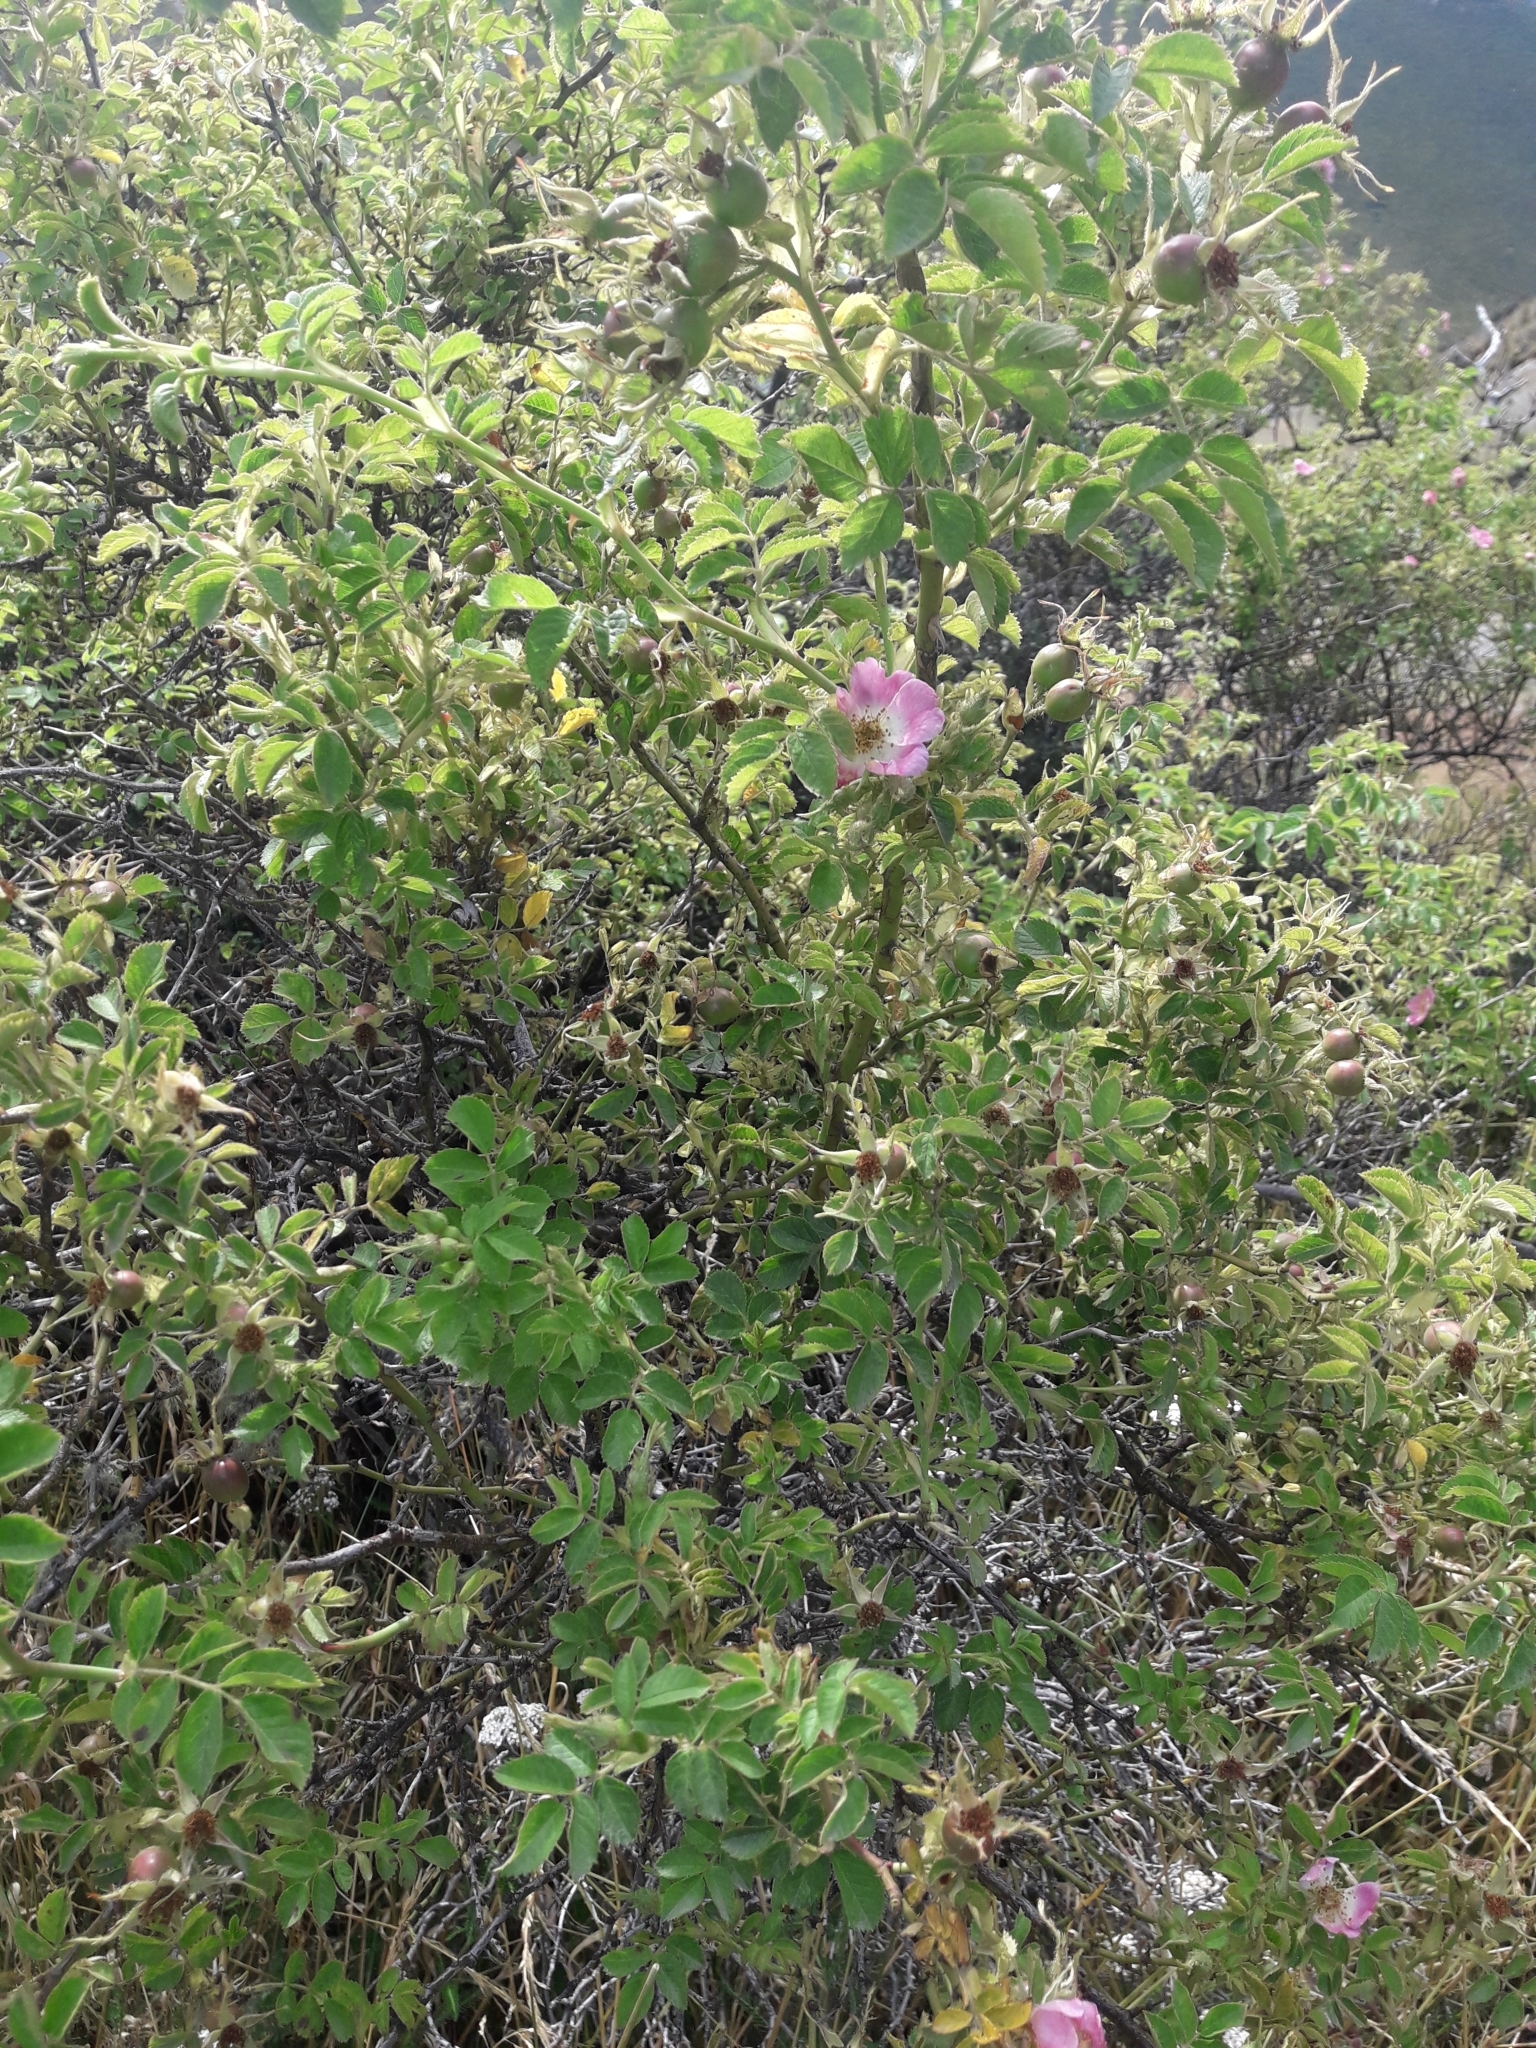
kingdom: Plantae
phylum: Tracheophyta
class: Magnoliopsida
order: Rosales
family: Rosaceae
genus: Rosa
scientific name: Rosa rubiginosa
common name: Sweet-briar
